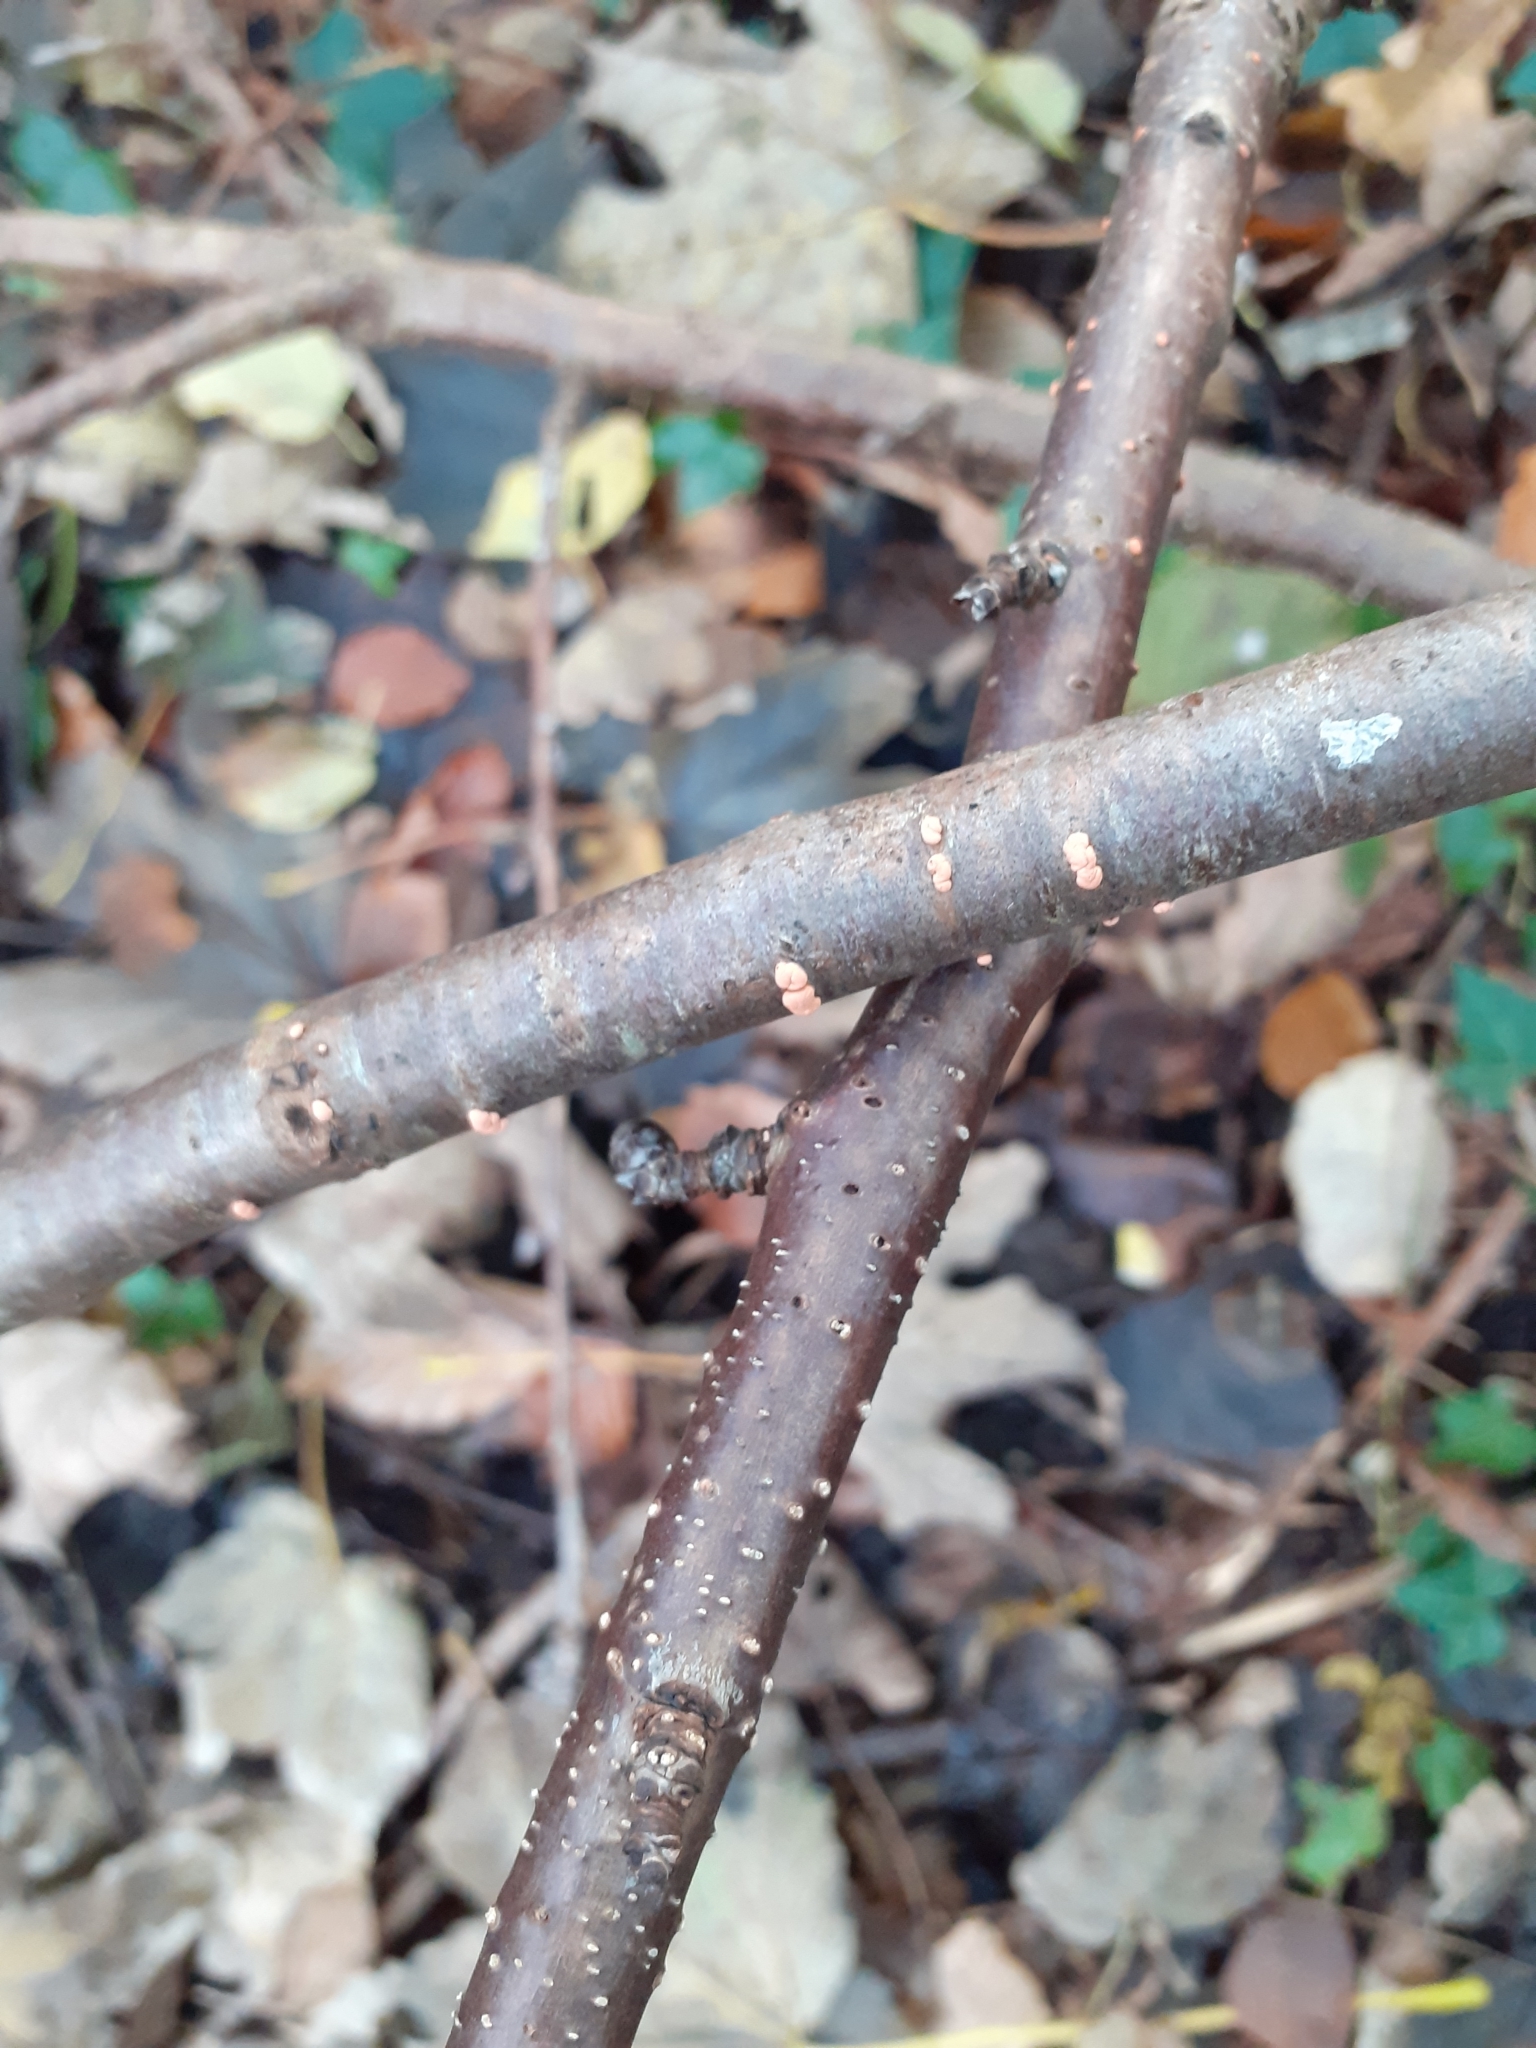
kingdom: Fungi
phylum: Ascomycota
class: Sordariomycetes
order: Hypocreales
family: Nectriaceae
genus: Nectria
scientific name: Nectria cinnabarina
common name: Coral spot
